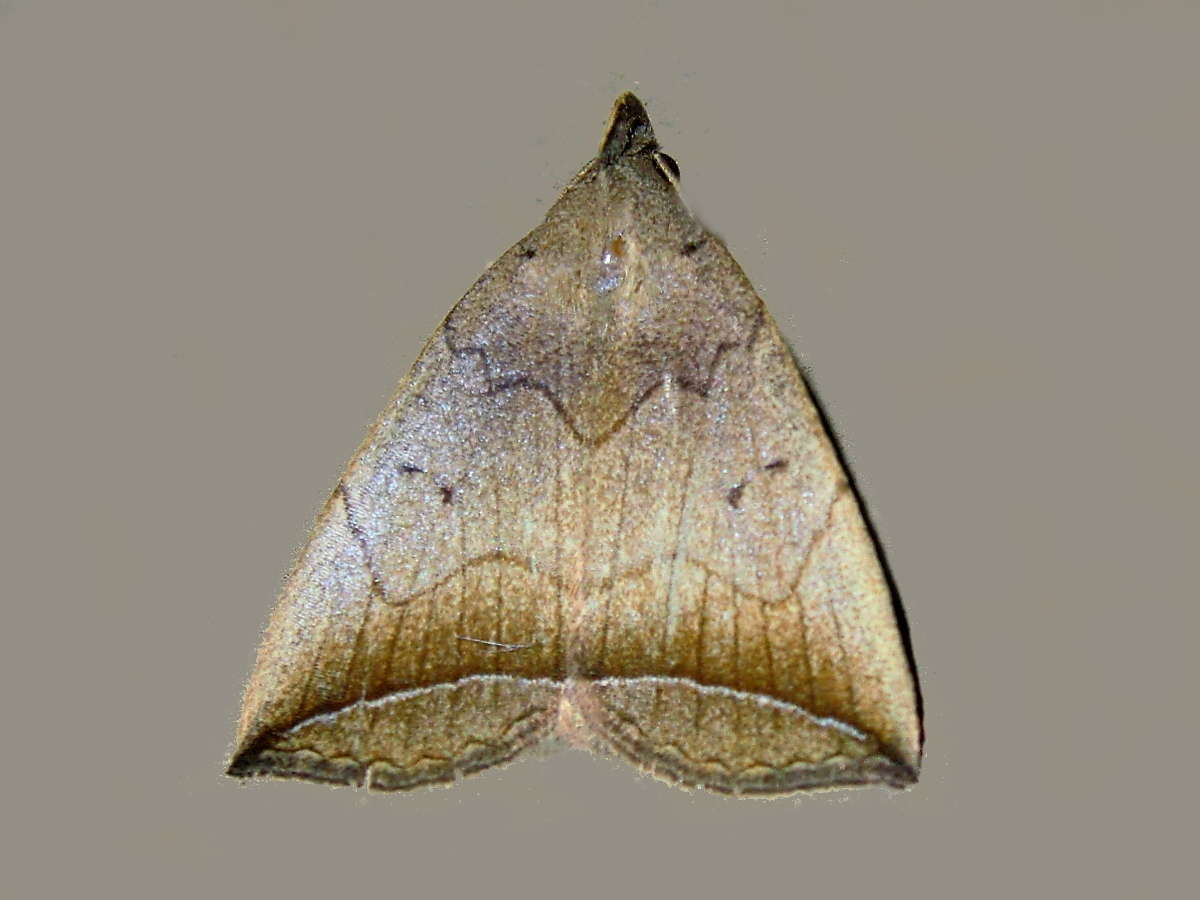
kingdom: Animalia
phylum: Arthropoda
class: Insecta
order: Lepidoptera
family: Erebidae
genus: Simplicia
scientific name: Simplicia armatalis
